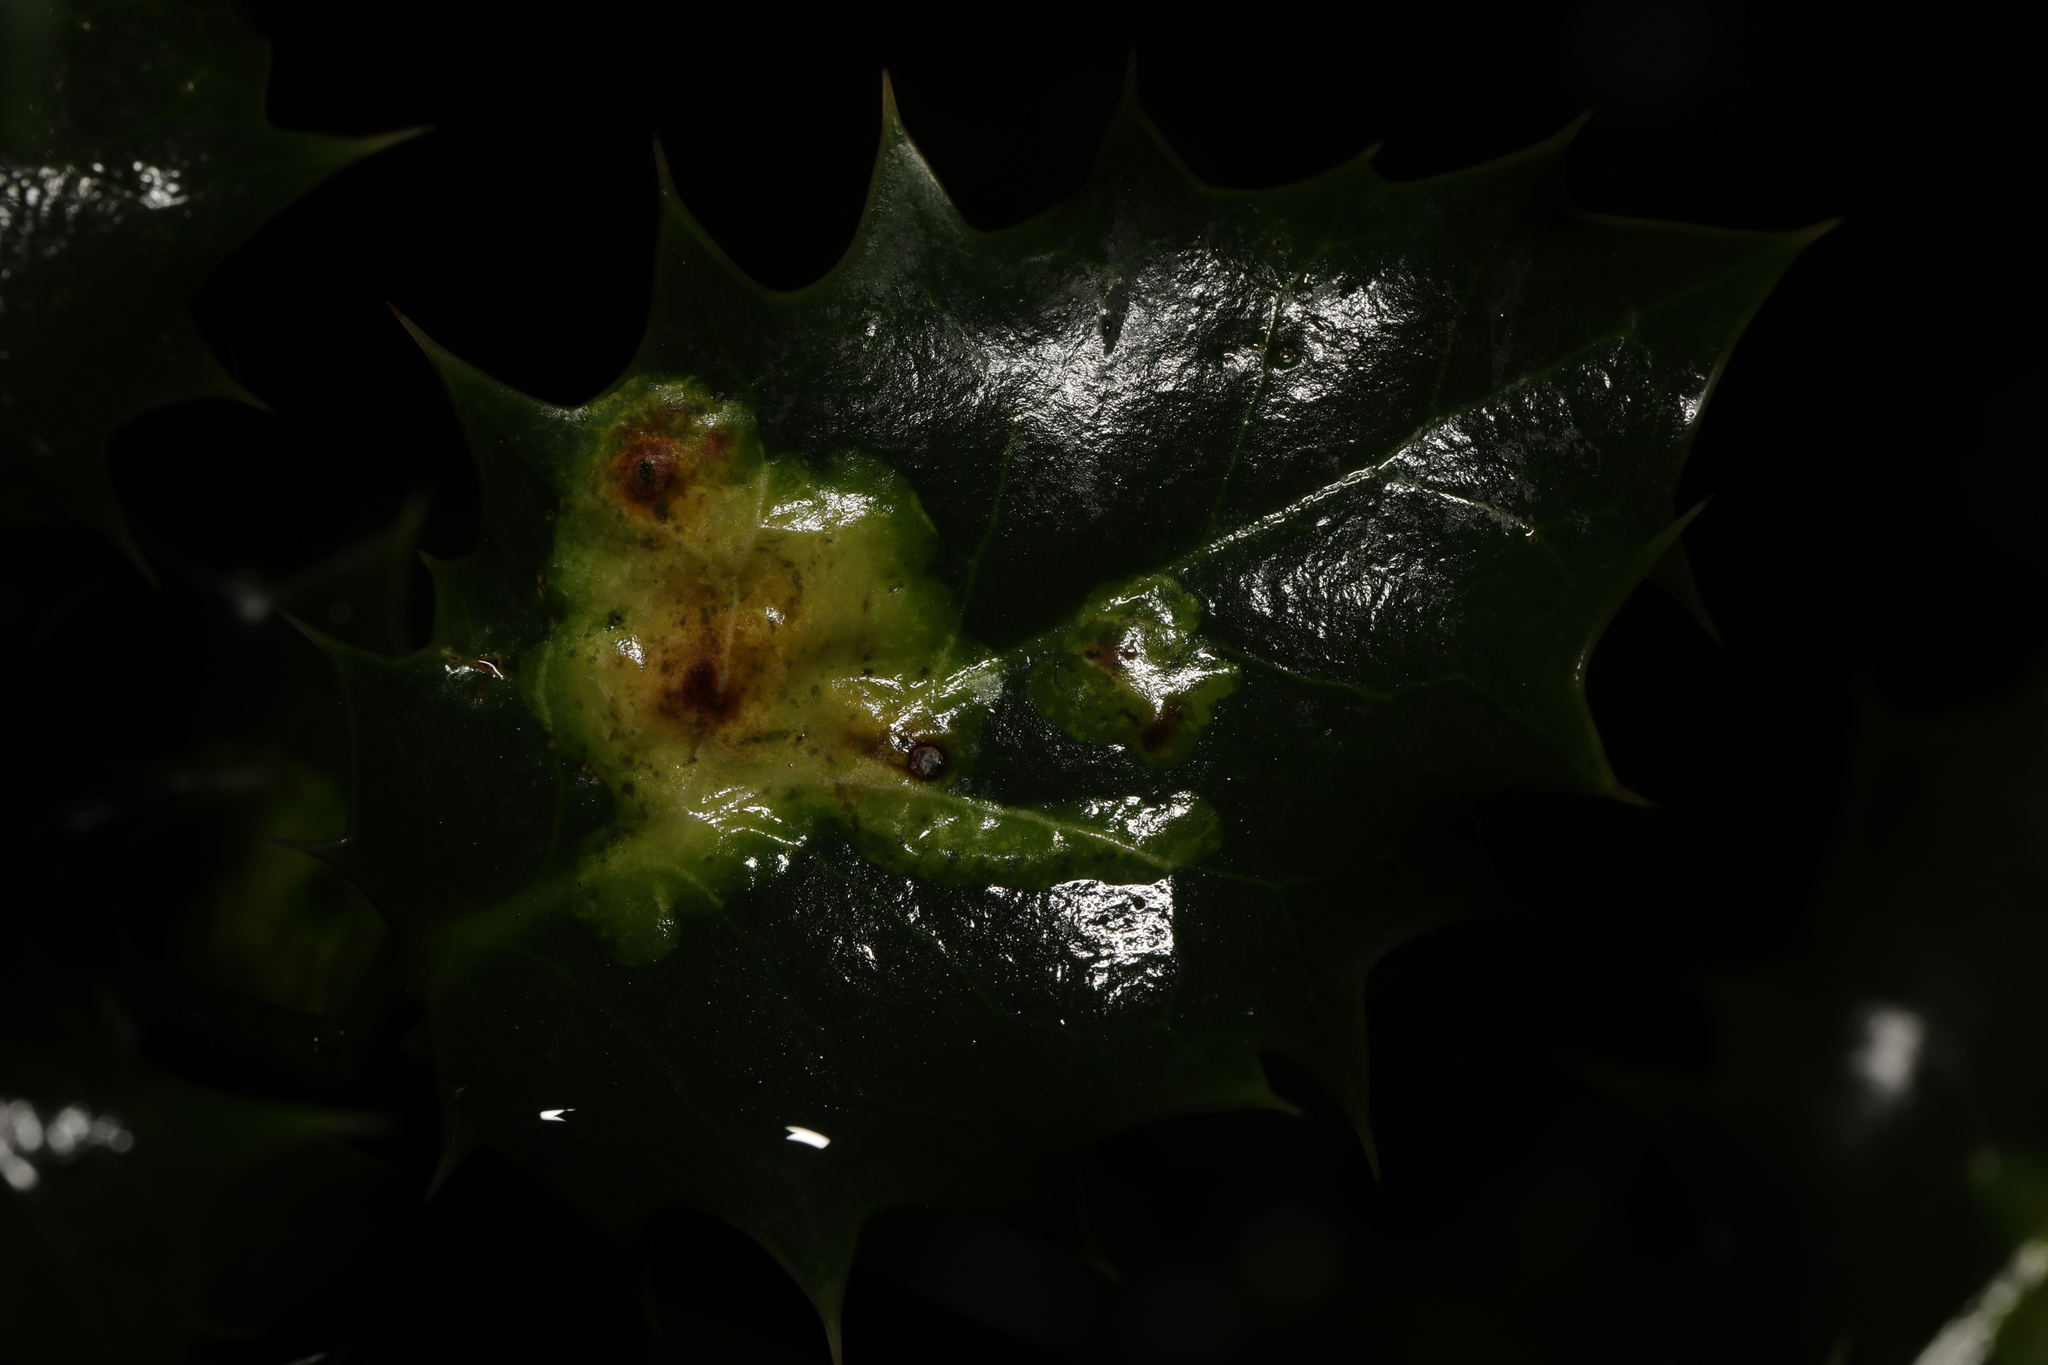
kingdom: Animalia
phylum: Arthropoda
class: Insecta
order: Diptera
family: Agromyzidae
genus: Phytomyza
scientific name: Phytomyza ilicis
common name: Holly leafminer
